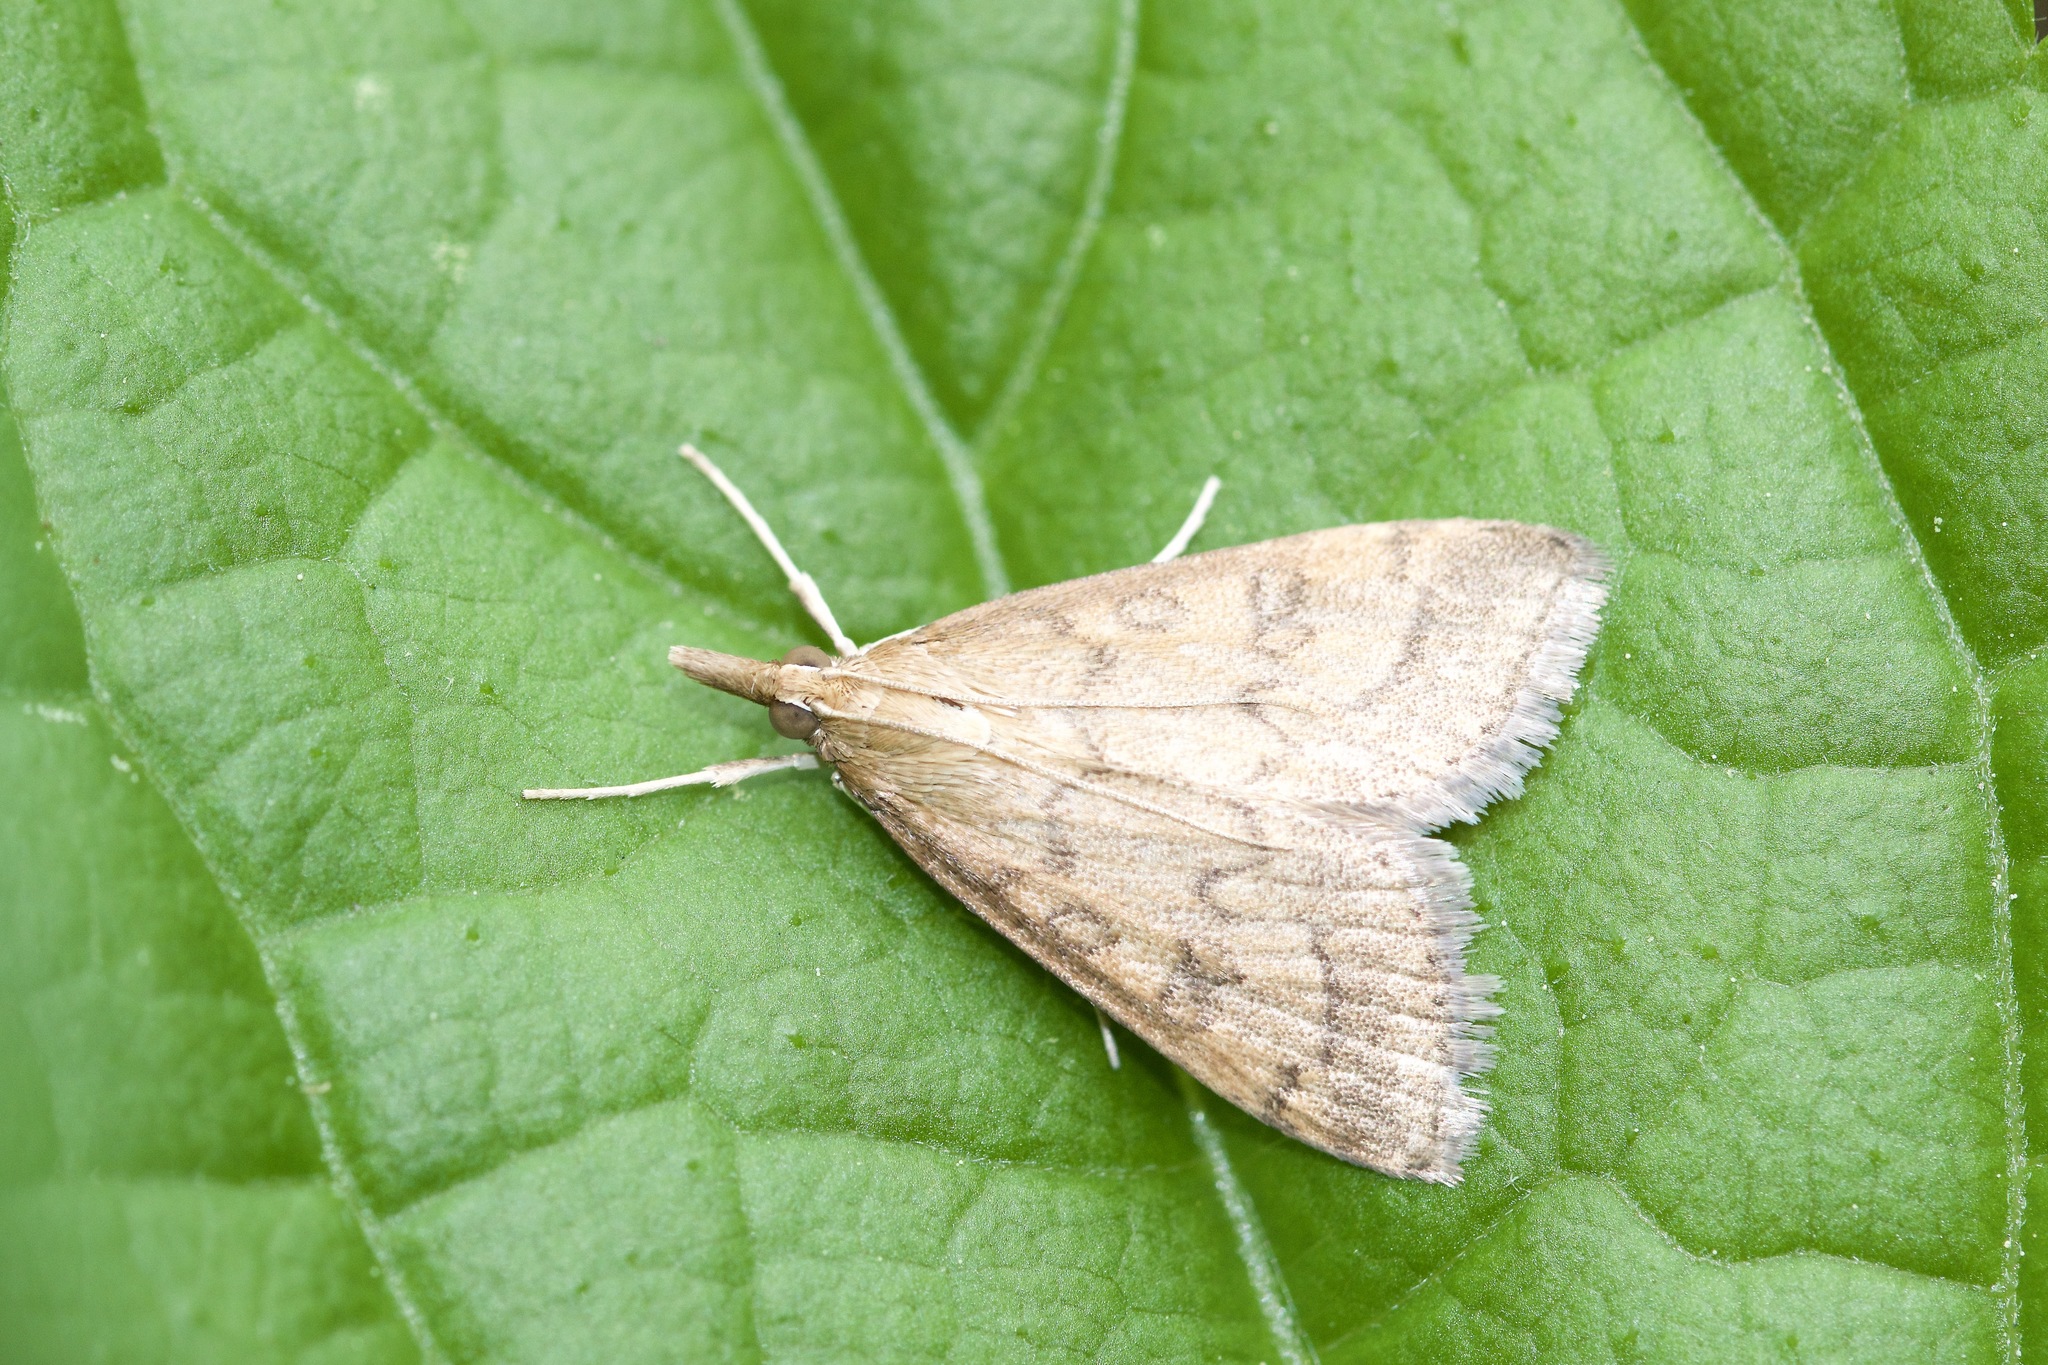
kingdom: Animalia
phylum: Arthropoda
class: Insecta
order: Lepidoptera
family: Crambidae
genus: Udea
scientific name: Udea rubigalis
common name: Celery leaftier moth
